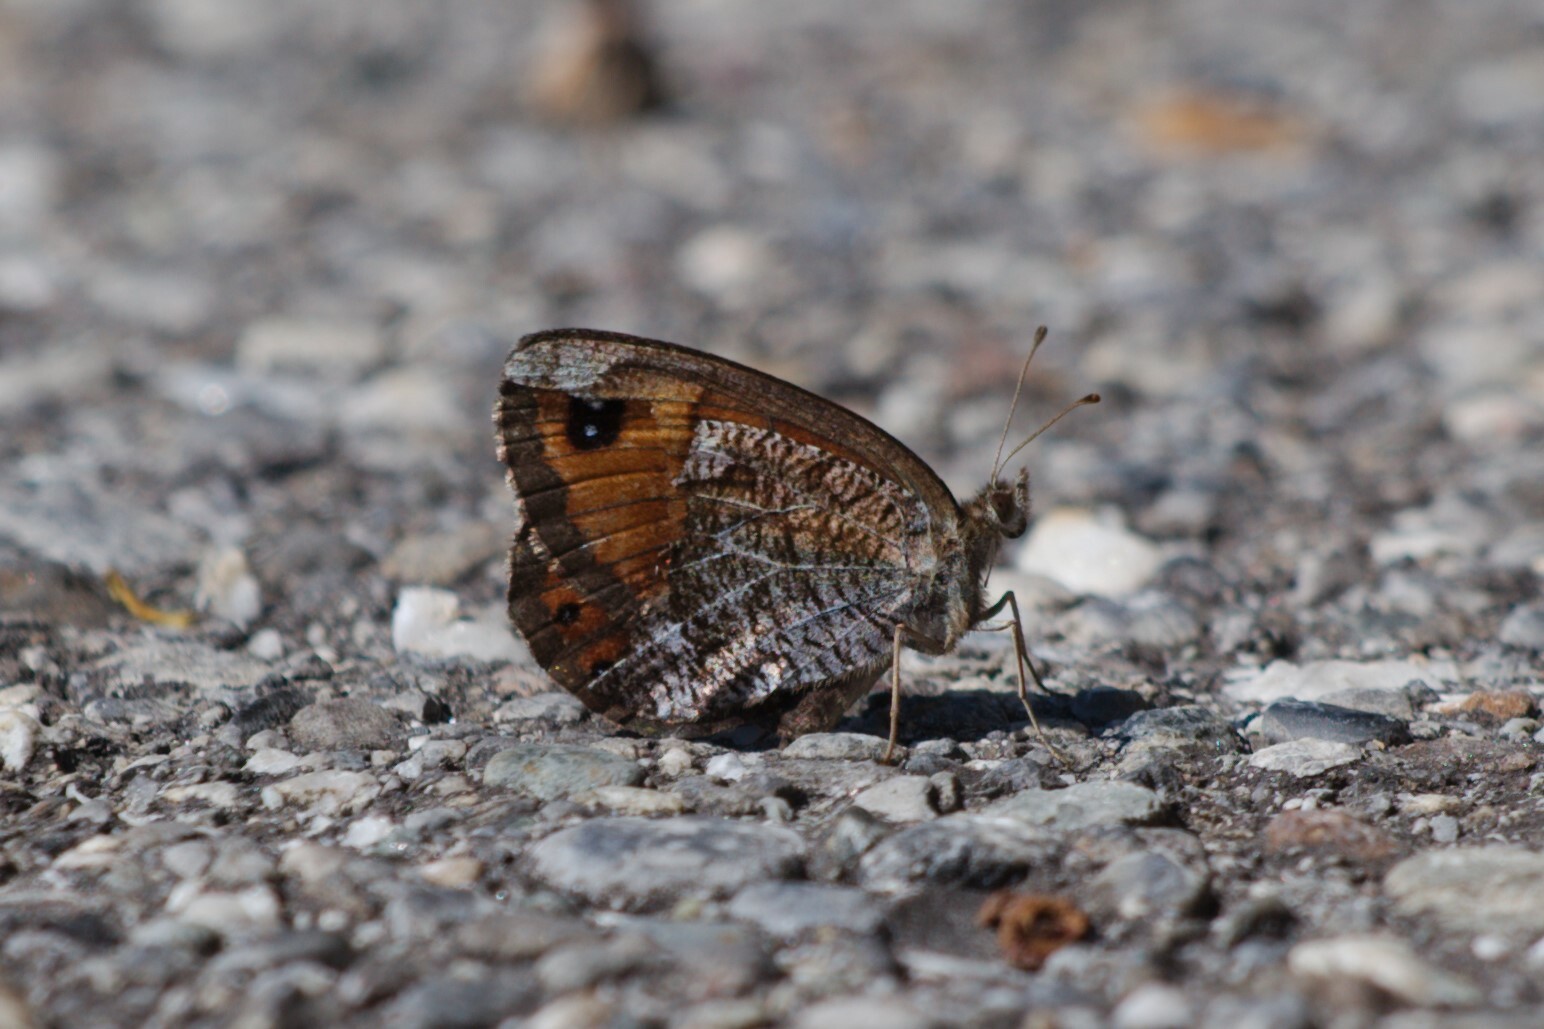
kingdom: Animalia
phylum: Arthropoda
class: Insecta
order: Lepidoptera
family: Nymphalidae
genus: Erebia
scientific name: Erebia montanus
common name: Marbled ringlet
